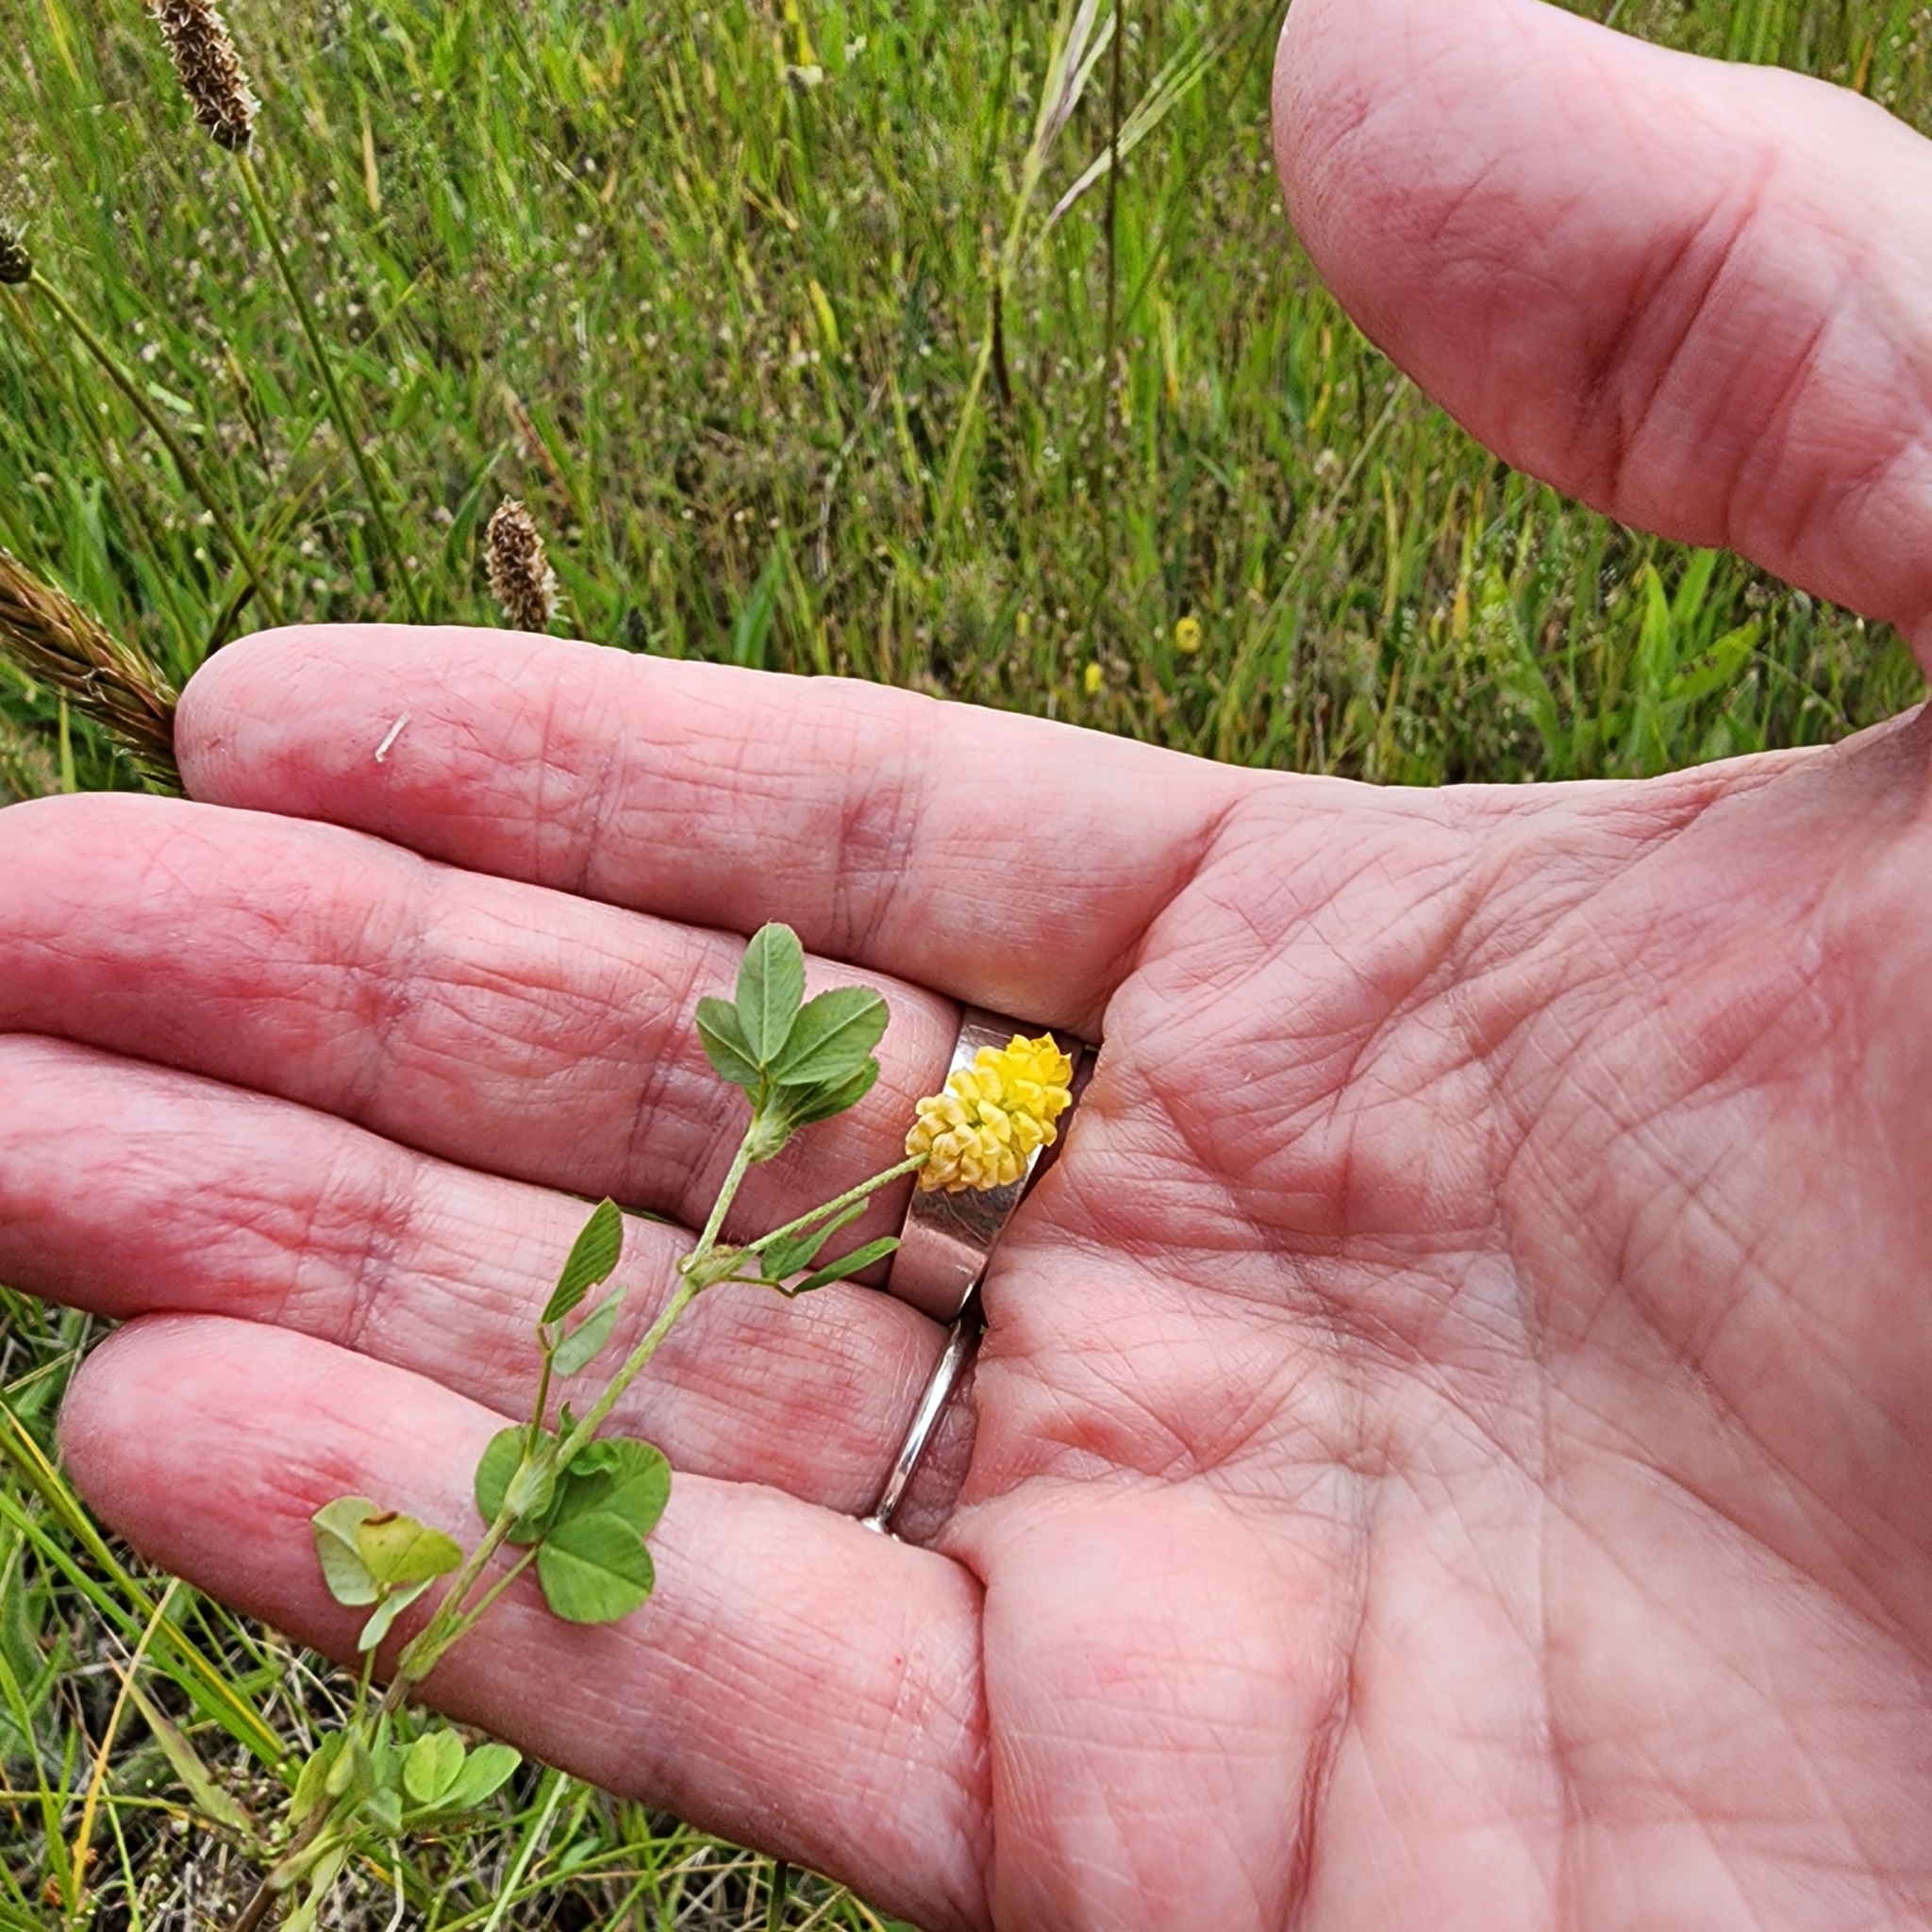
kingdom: Plantae
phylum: Tracheophyta
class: Magnoliopsida
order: Fabales
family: Fabaceae
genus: Trifolium
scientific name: Trifolium campestre
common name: Field clover
